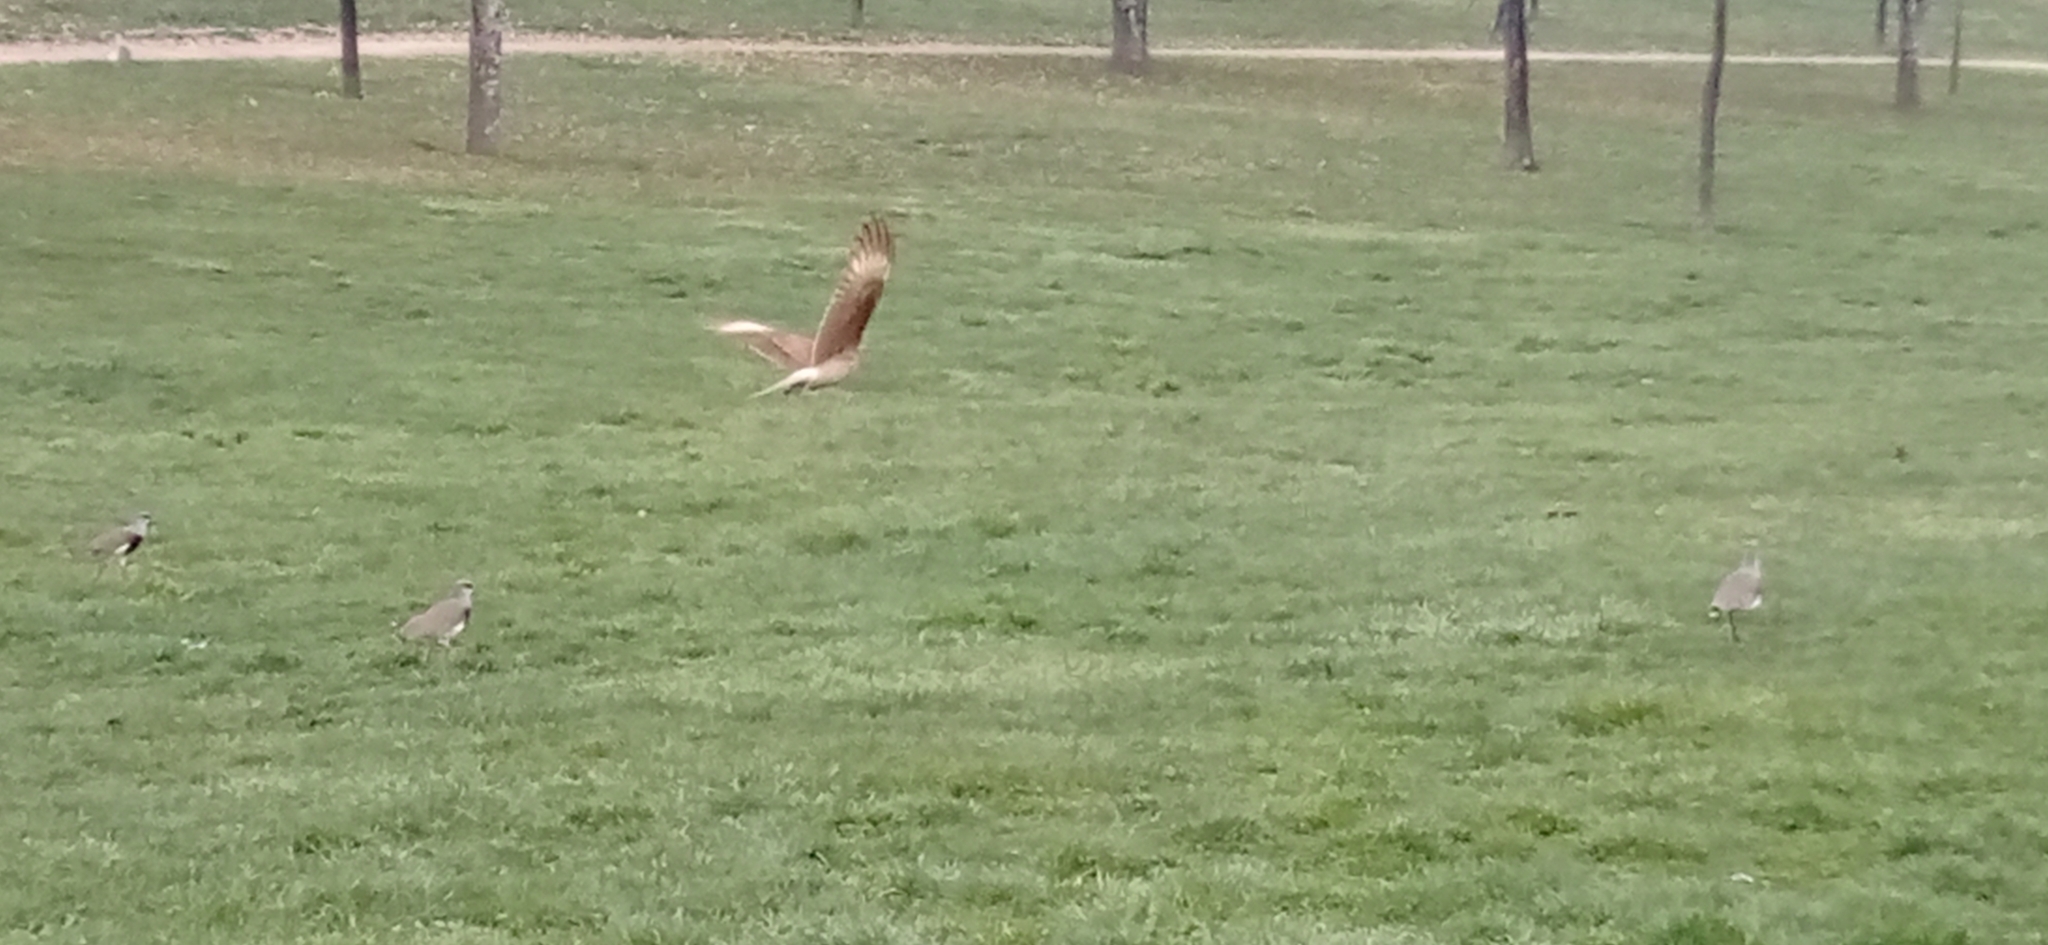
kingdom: Animalia
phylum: Chordata
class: Aves
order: Falconiformes
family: Falconidae
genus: Daptrius
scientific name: Daptrius
